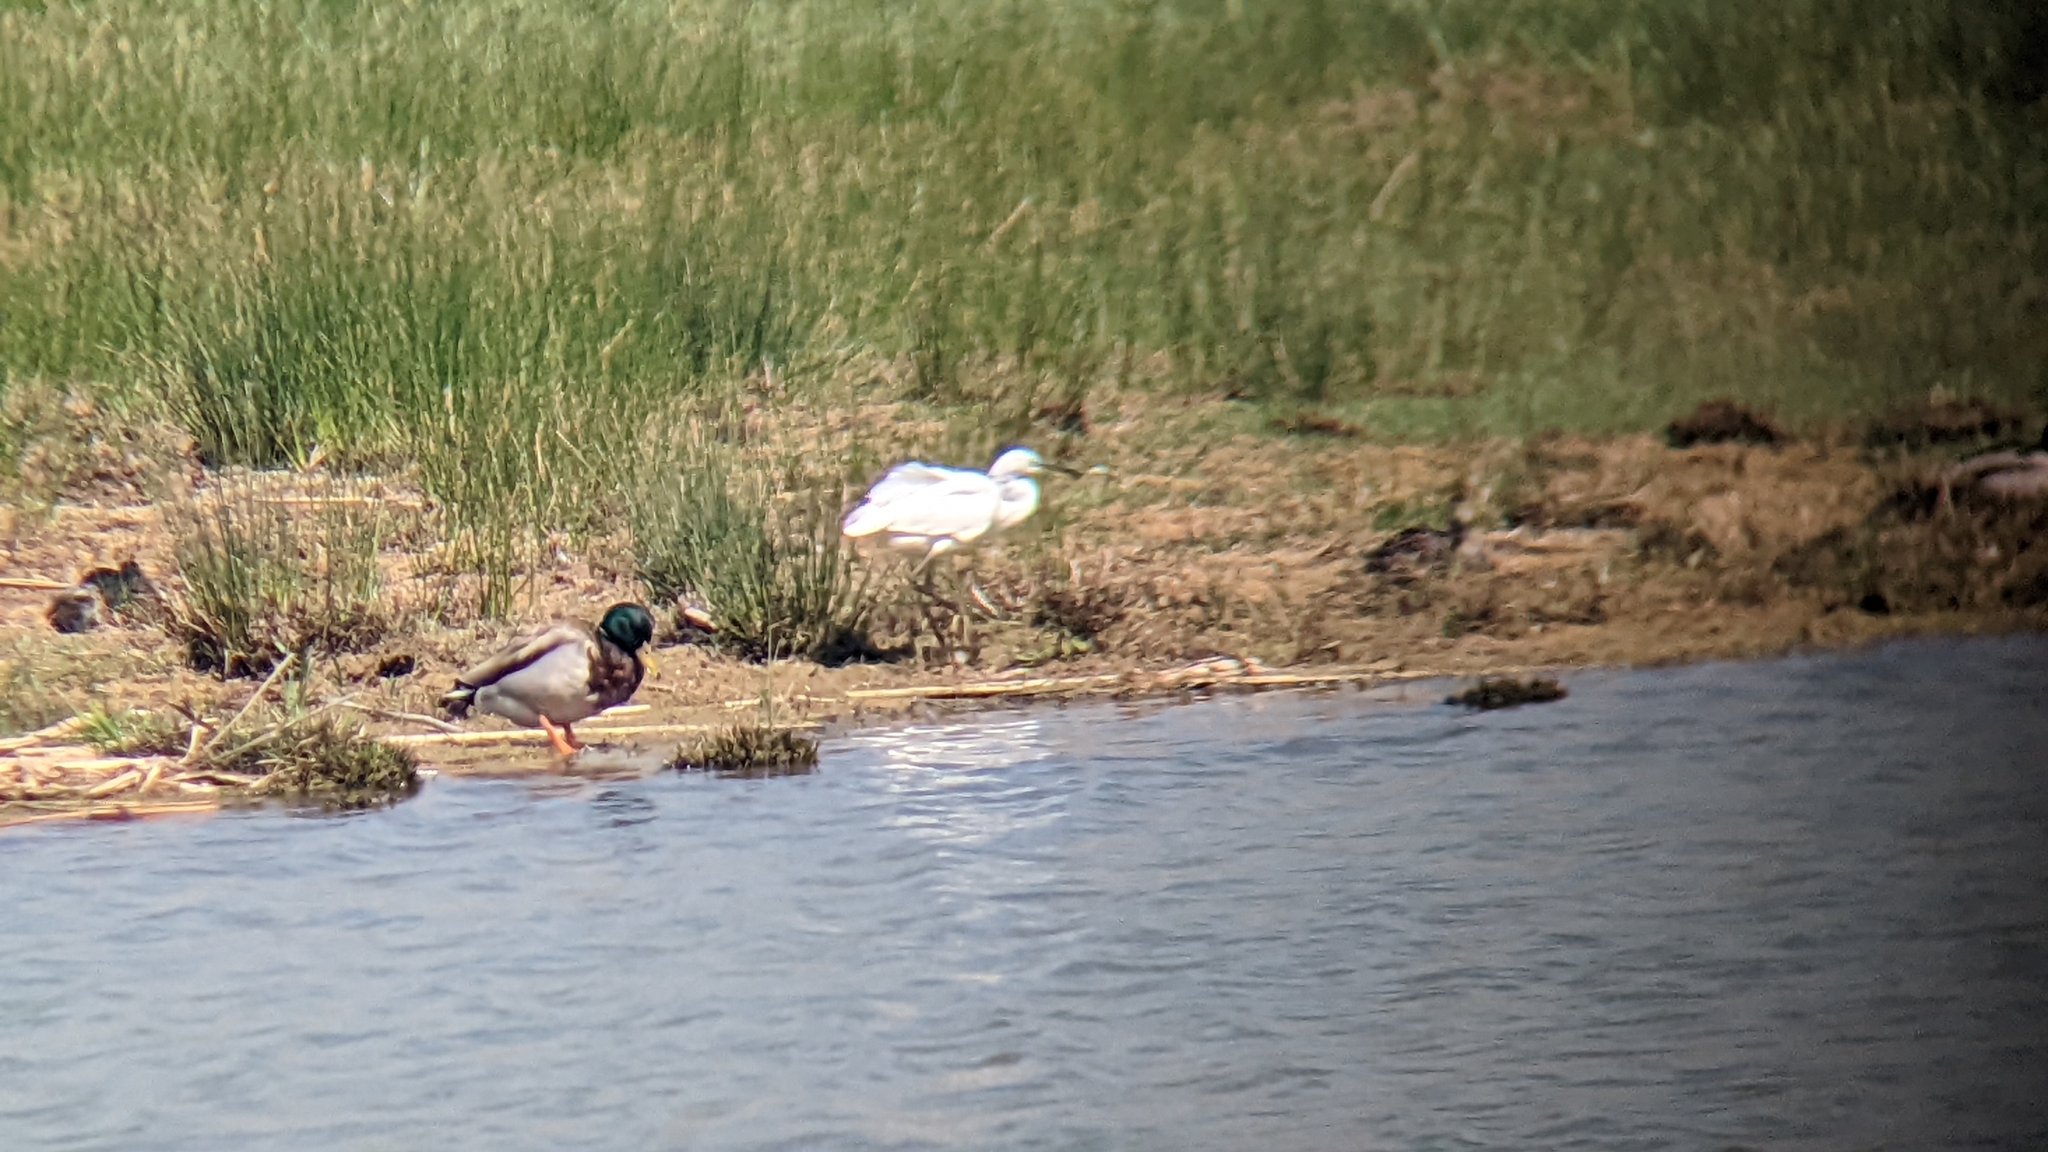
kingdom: Animalia
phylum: Chordata
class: Aves
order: Pelecaniformes
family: Ardeidae
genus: Egretta
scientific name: Egretta garzetta
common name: Little egret
